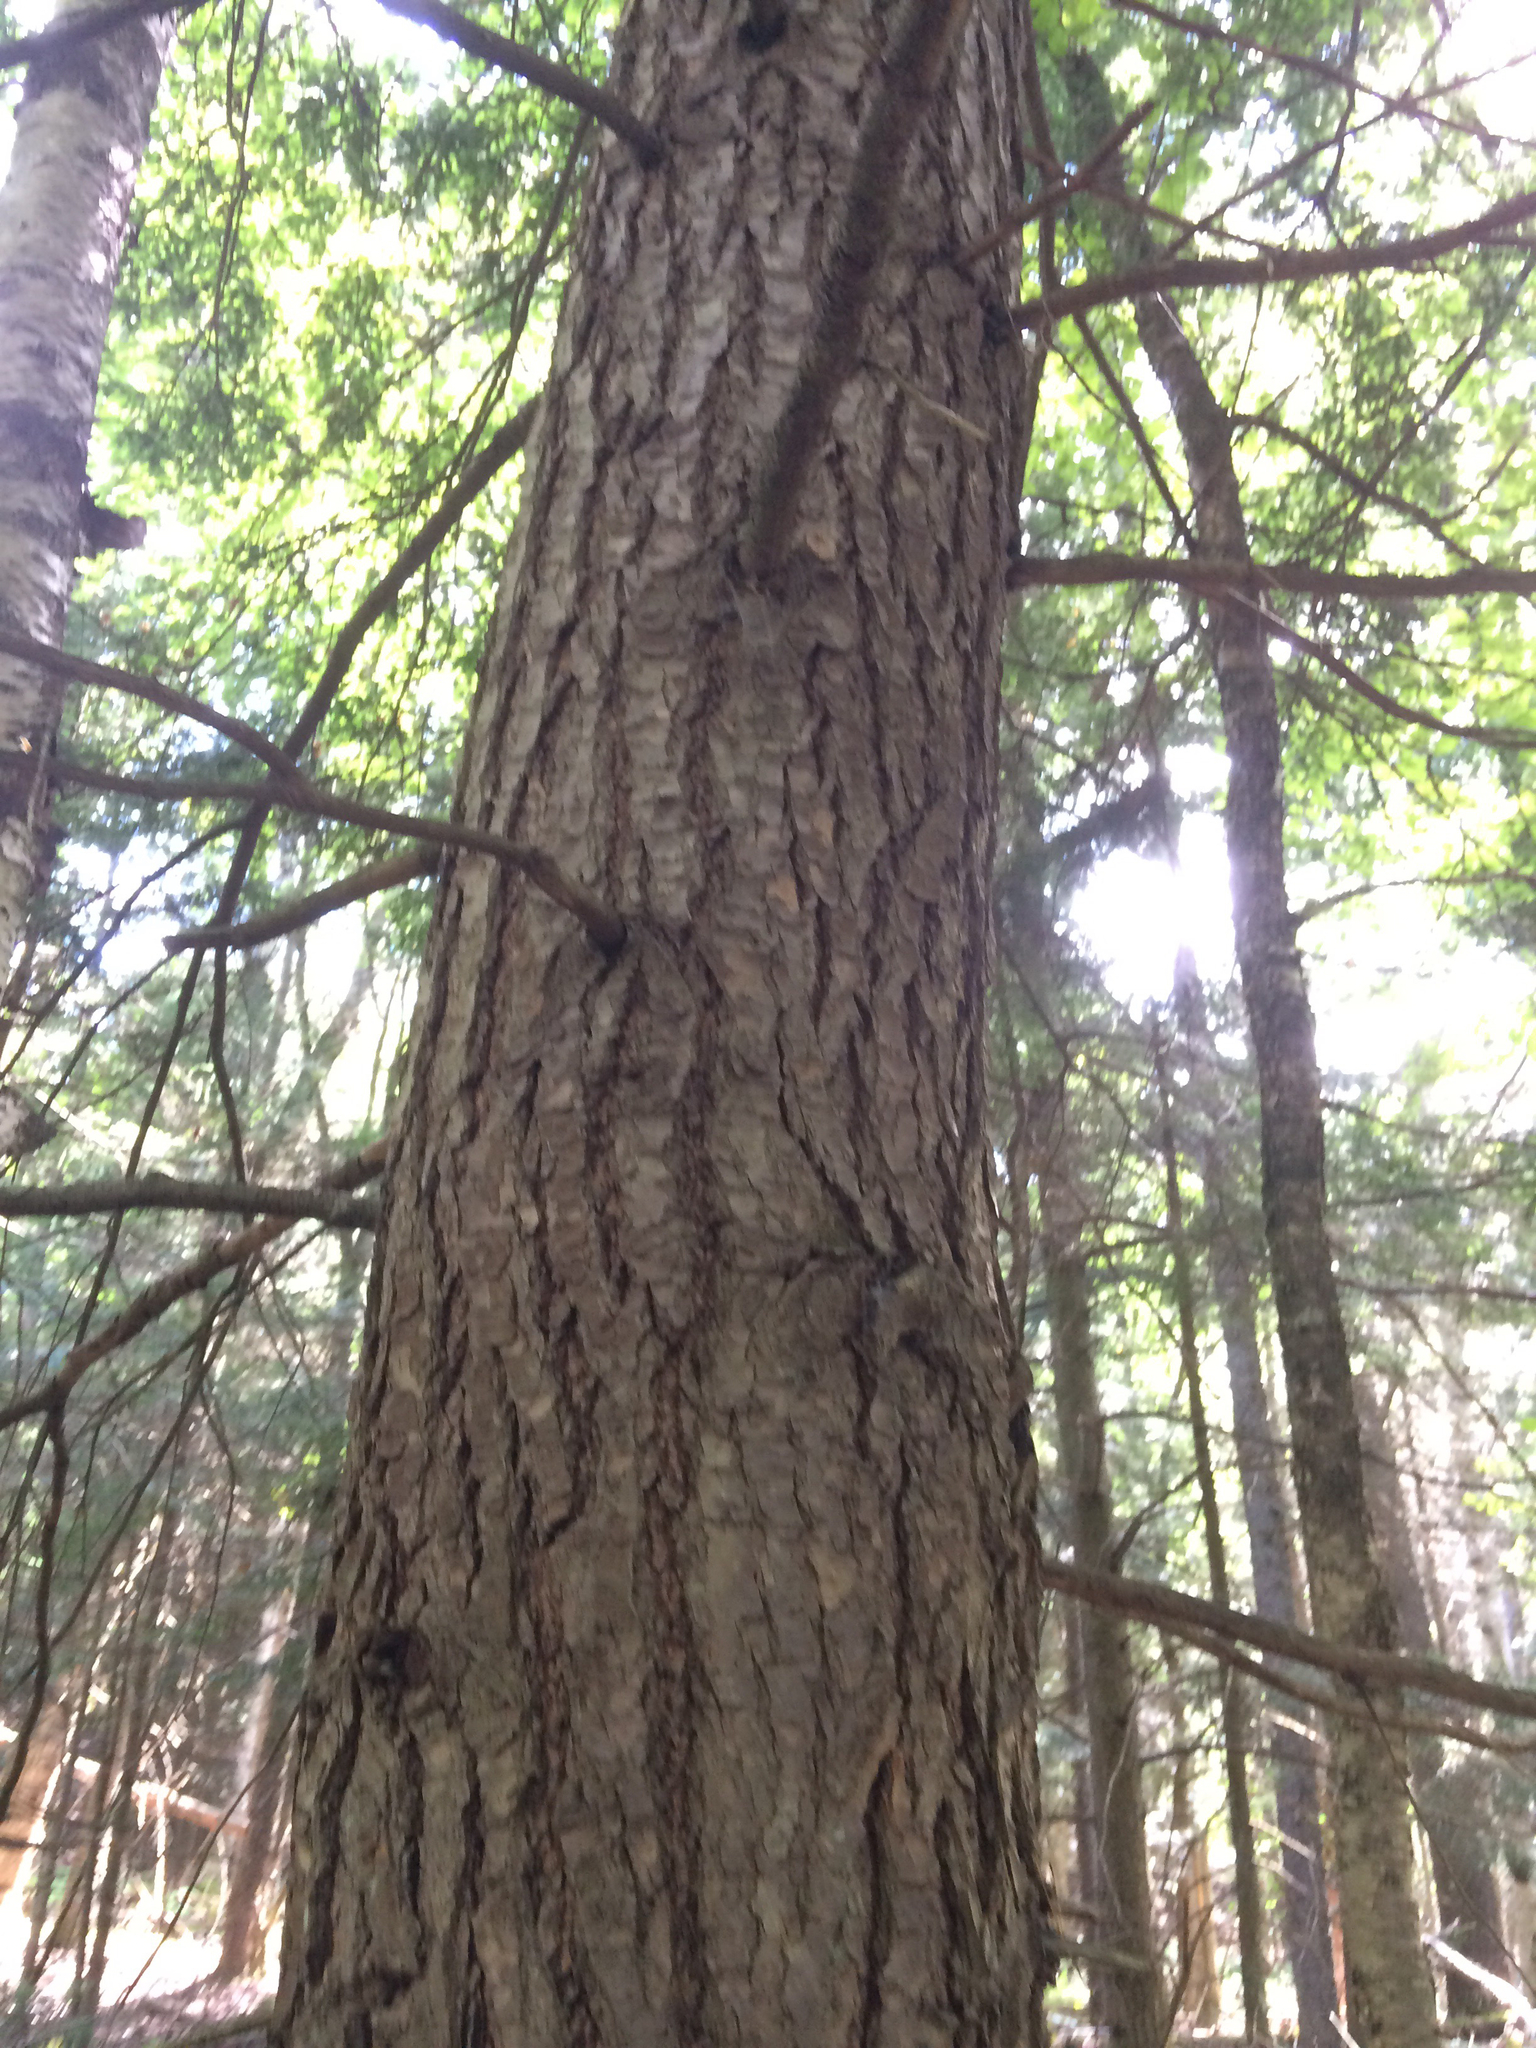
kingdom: Plantae
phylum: Tracheophyta
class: Pinopsida
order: Pinales
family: Pinaceae
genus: Tsuga
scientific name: Tsuga canadensis
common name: Eastern hemlock
